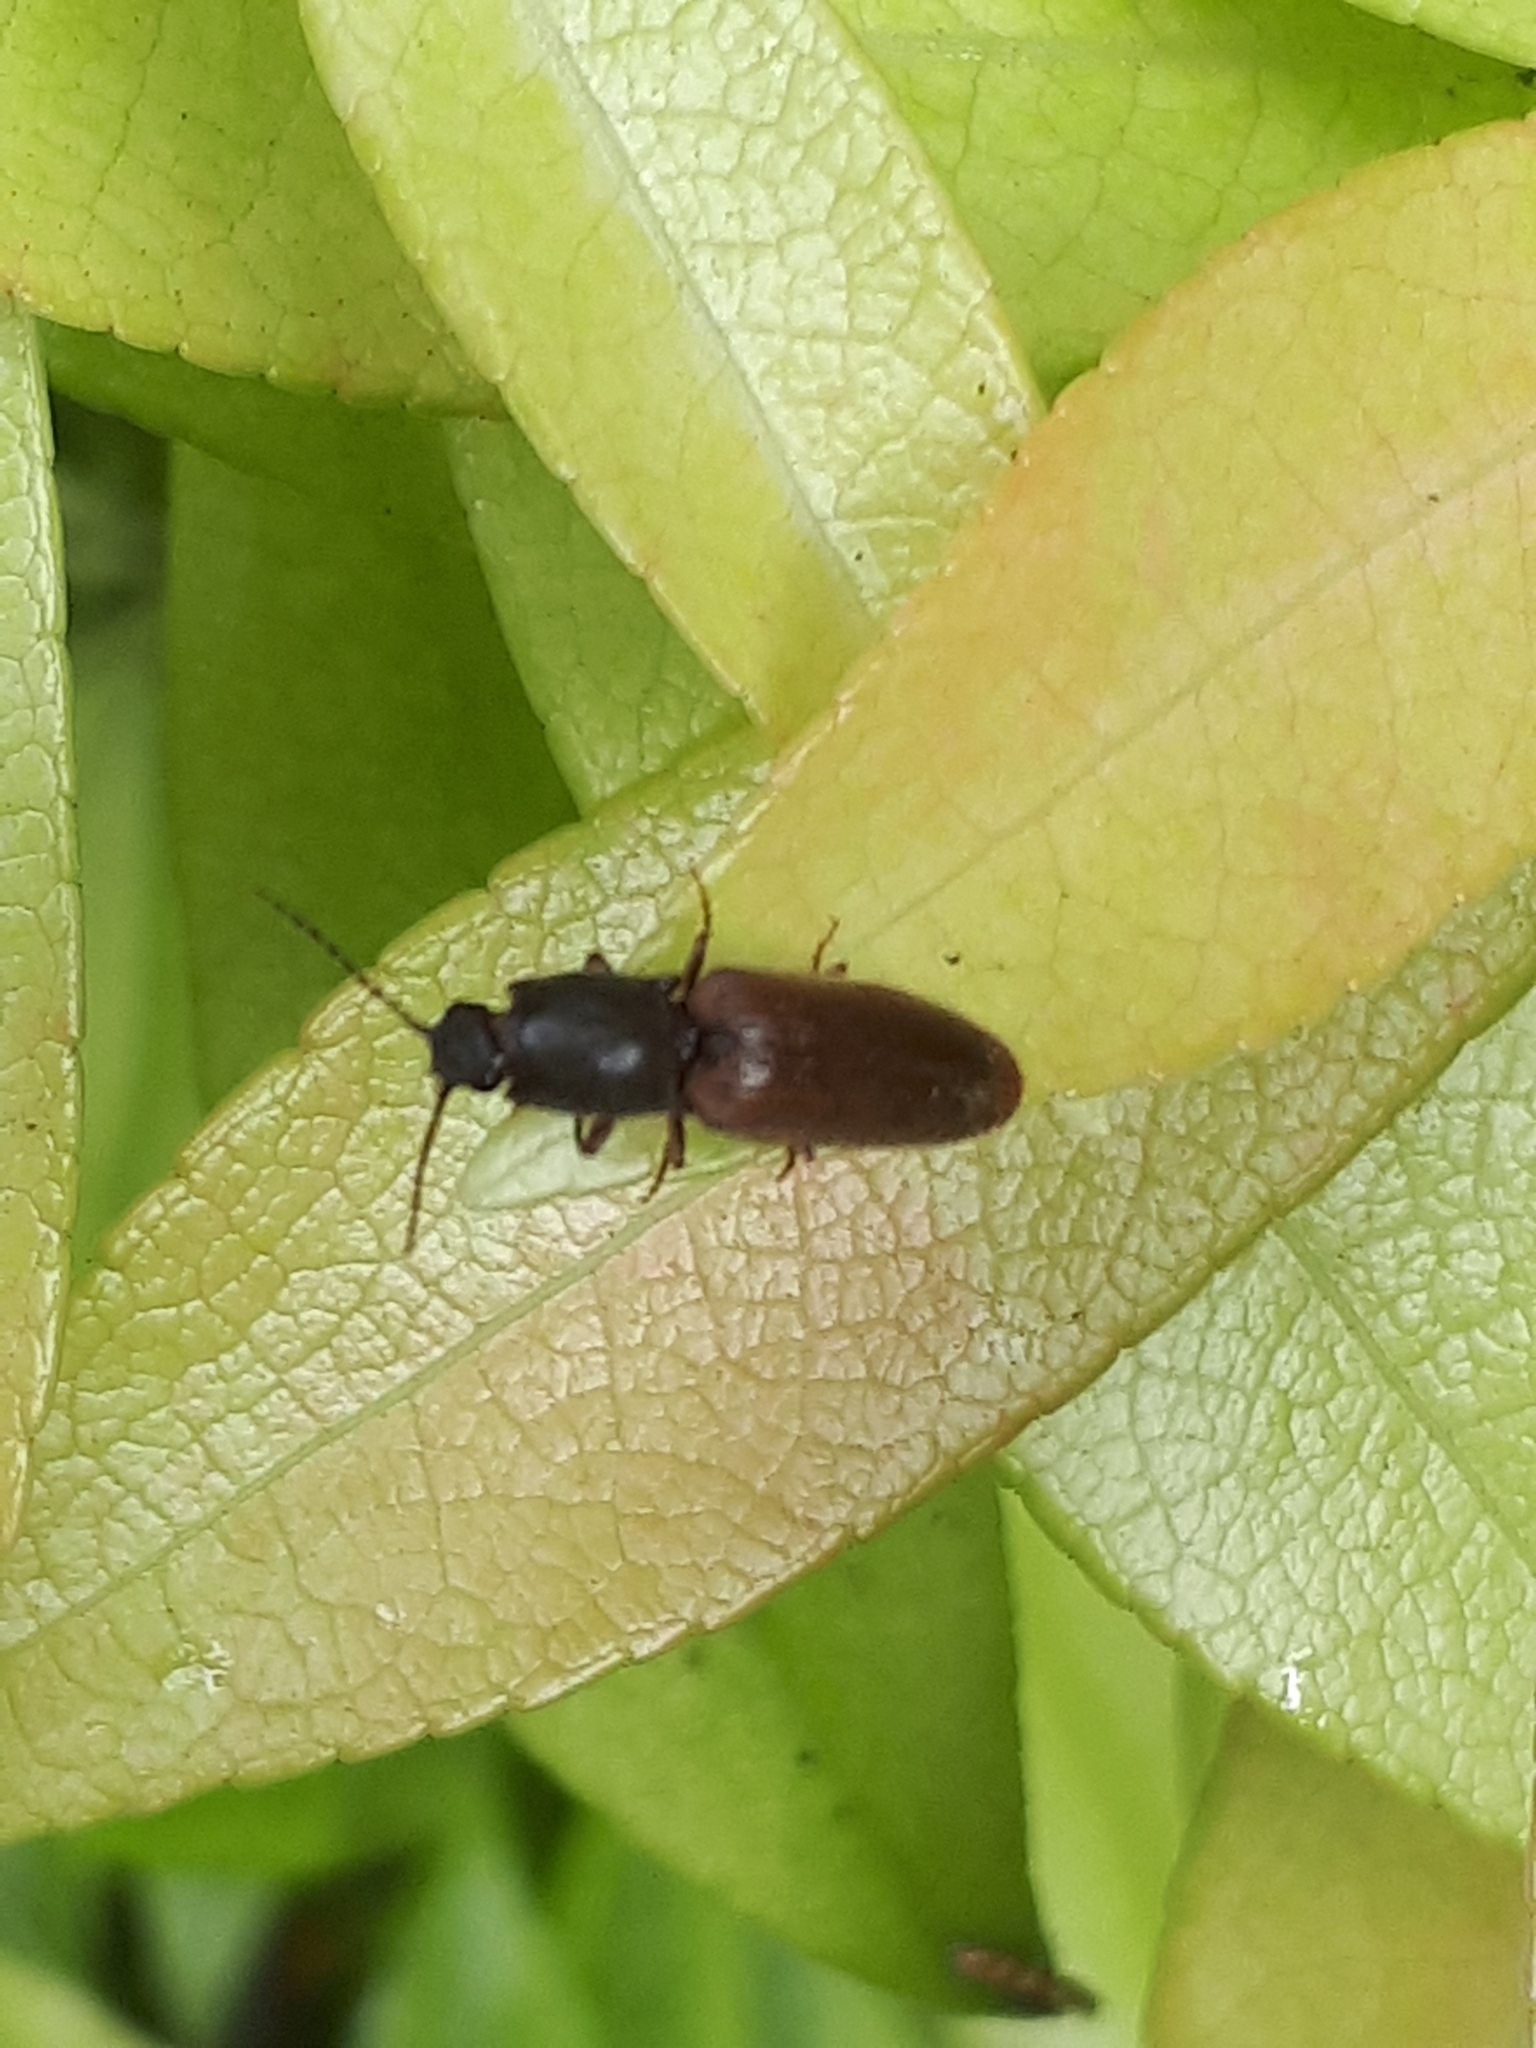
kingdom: Animalia
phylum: Arthropoda
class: Insecta
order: Coleoptera
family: Elateridae
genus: Athous
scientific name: Athous haemorrhoidalis
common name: Red-brown click beetle
